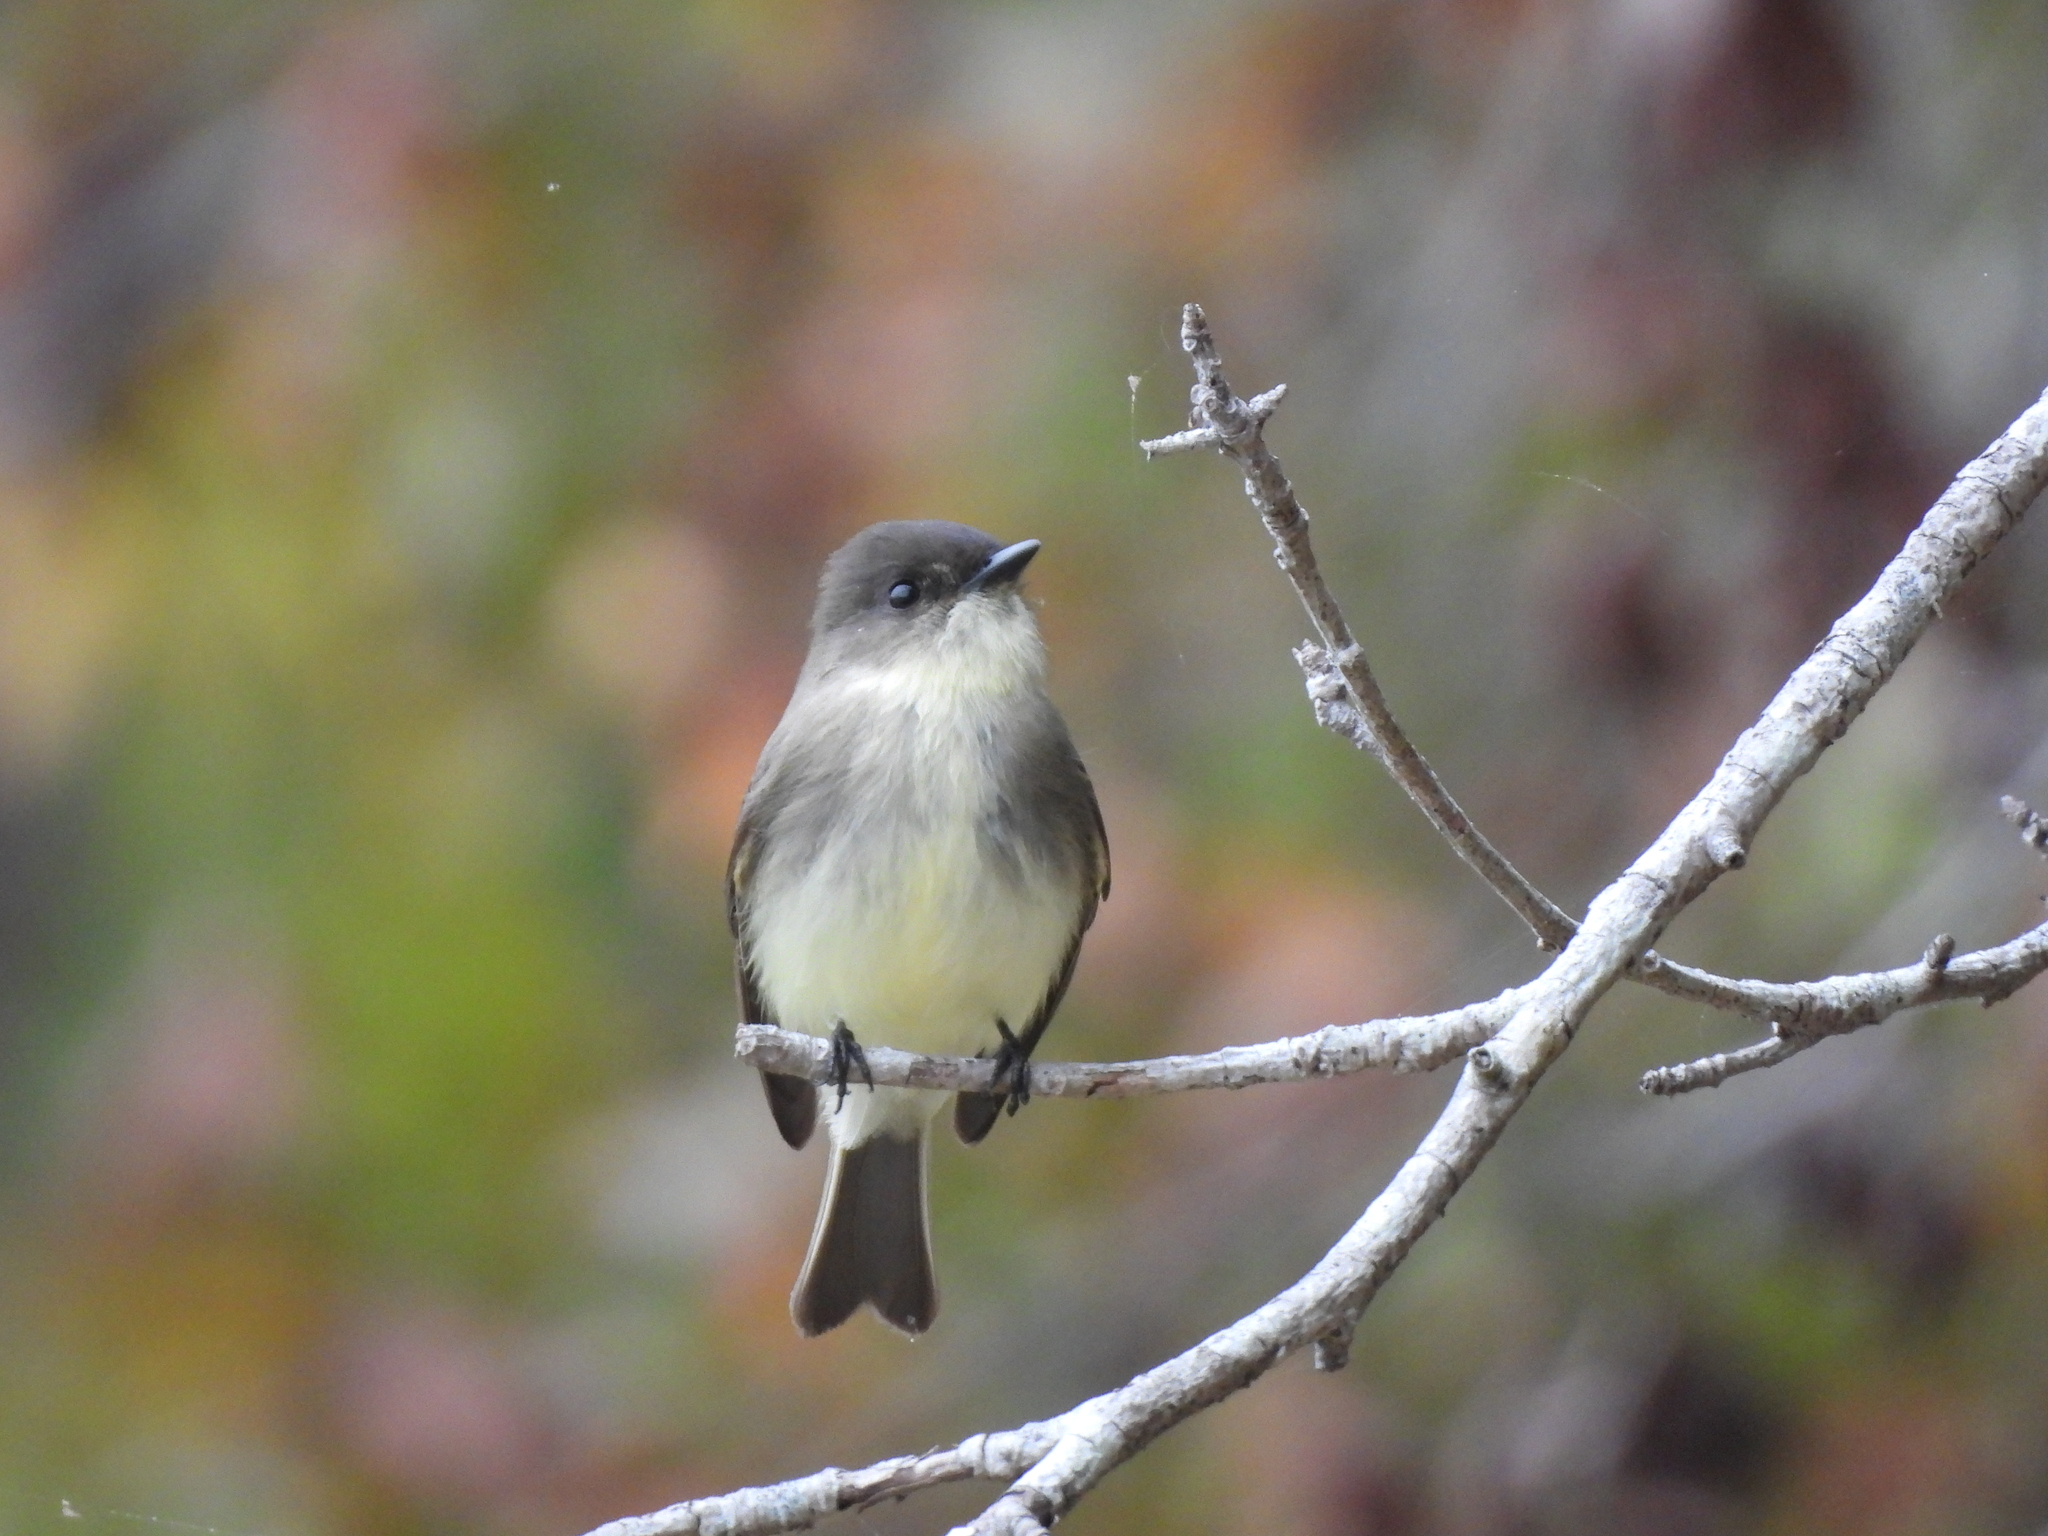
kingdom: Animalia
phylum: Chordata
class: Aves
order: Passeriformes
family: Tyrannidae
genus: Sayornis
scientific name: Sayornis phoebe
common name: Eastern phoebe
